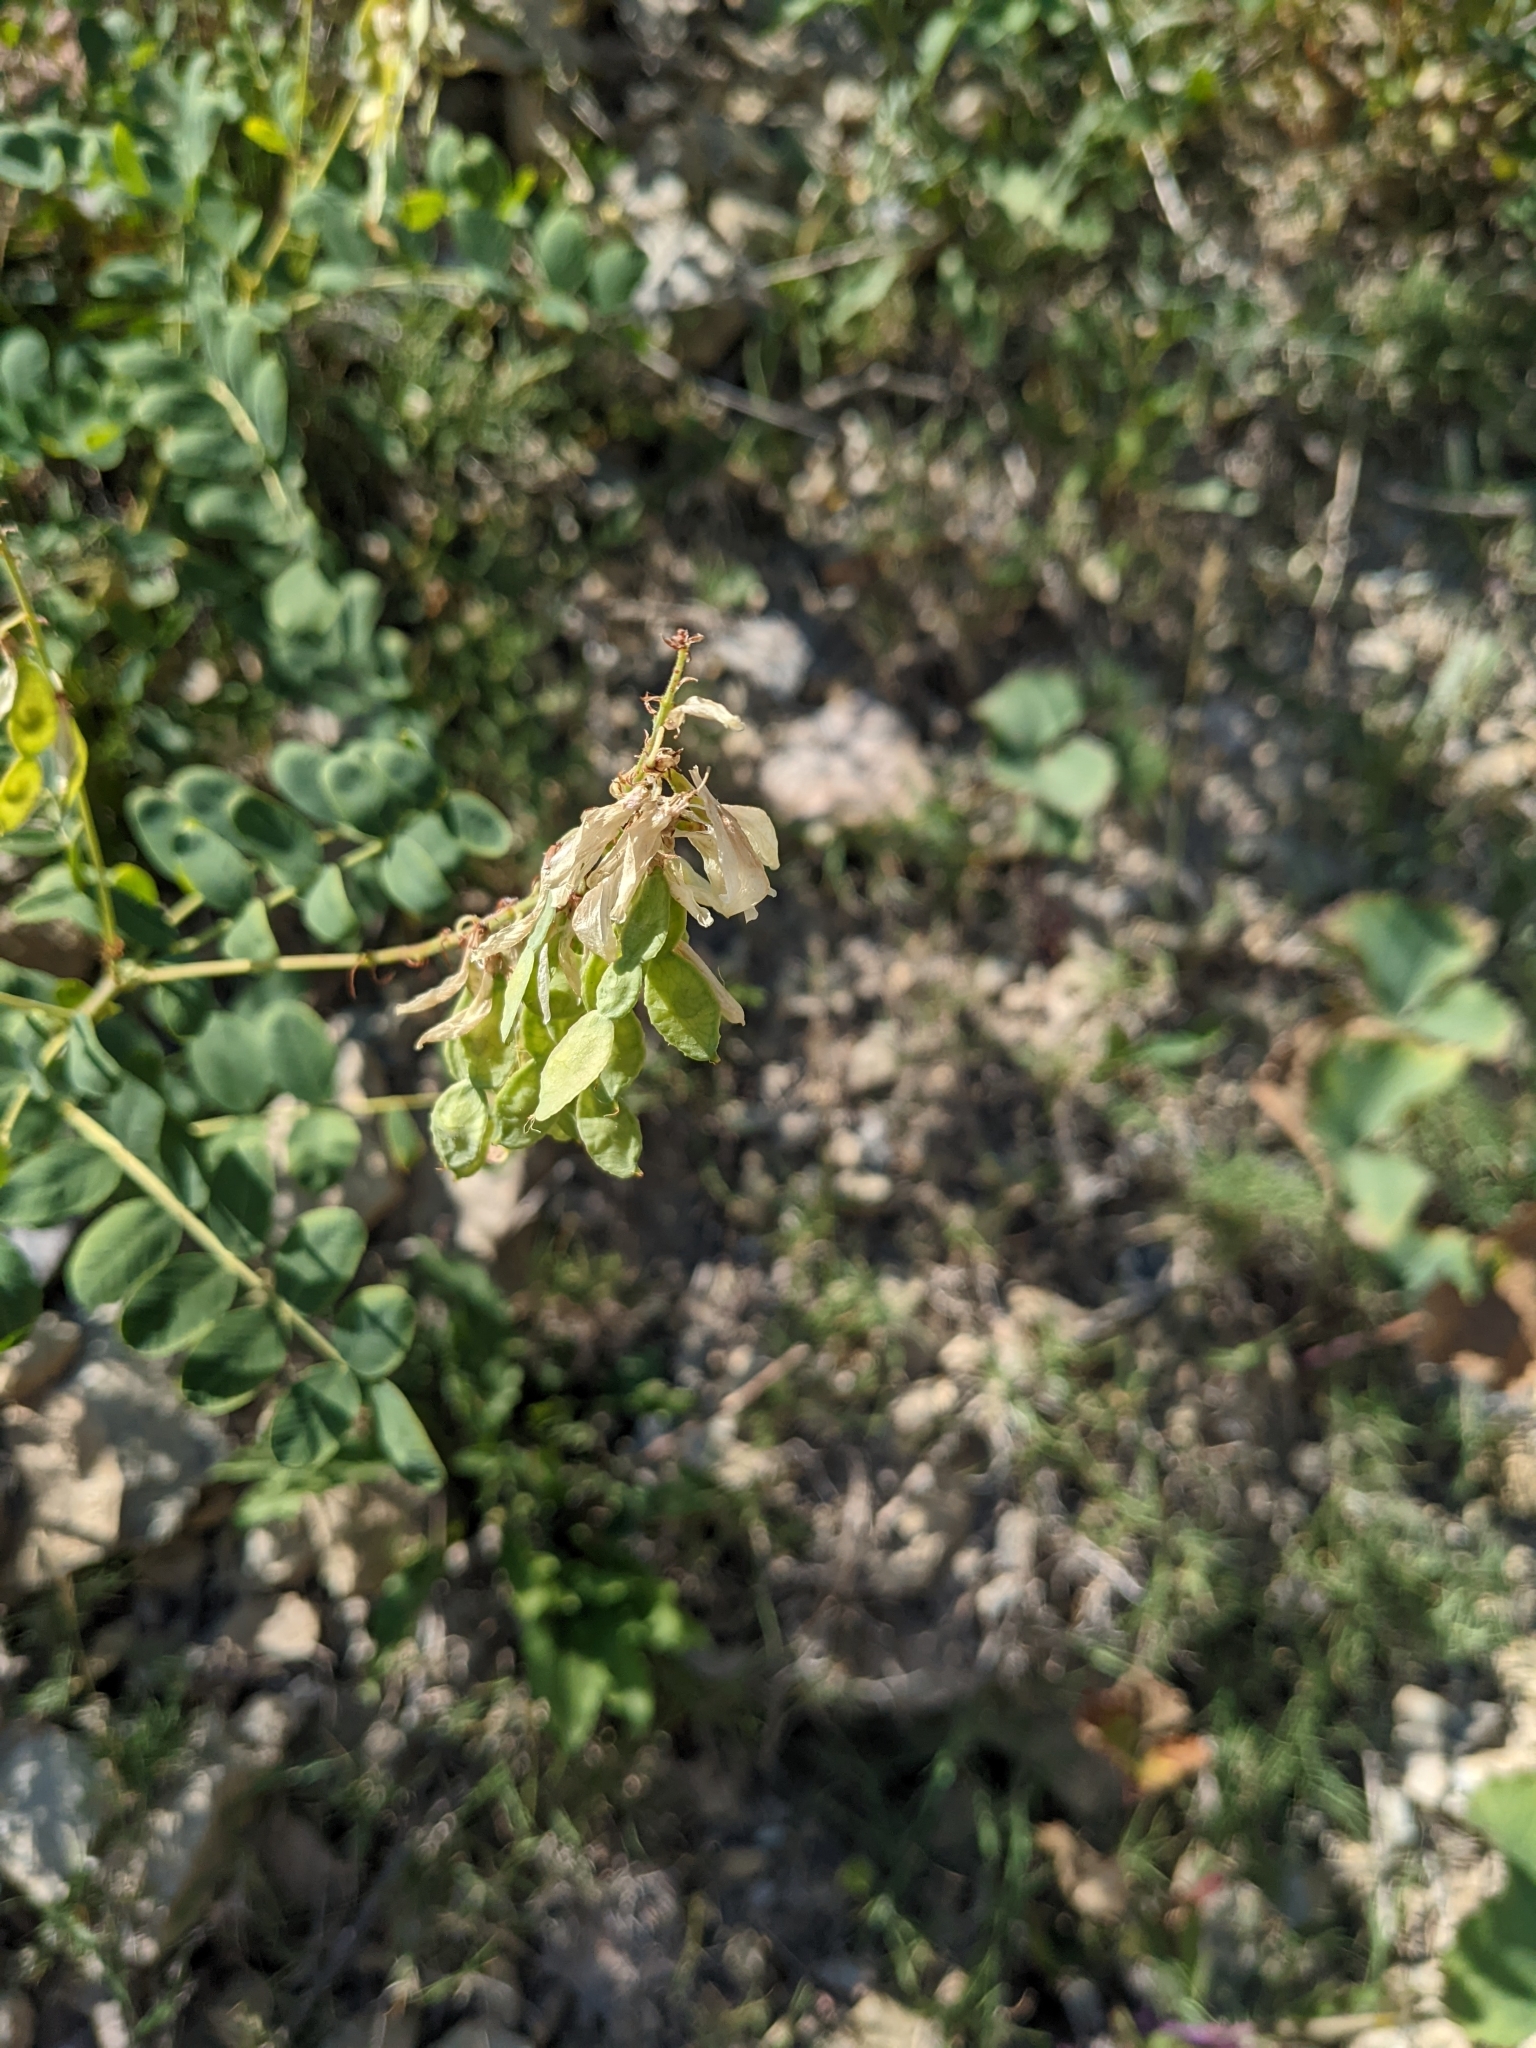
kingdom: Plantae
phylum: Tracheophyta
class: Magnoliopsida
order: Fabales
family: Fabaceae
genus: Hedysarum
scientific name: Hedysarum hedysaroides
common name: Alpine french-honeysuckle
